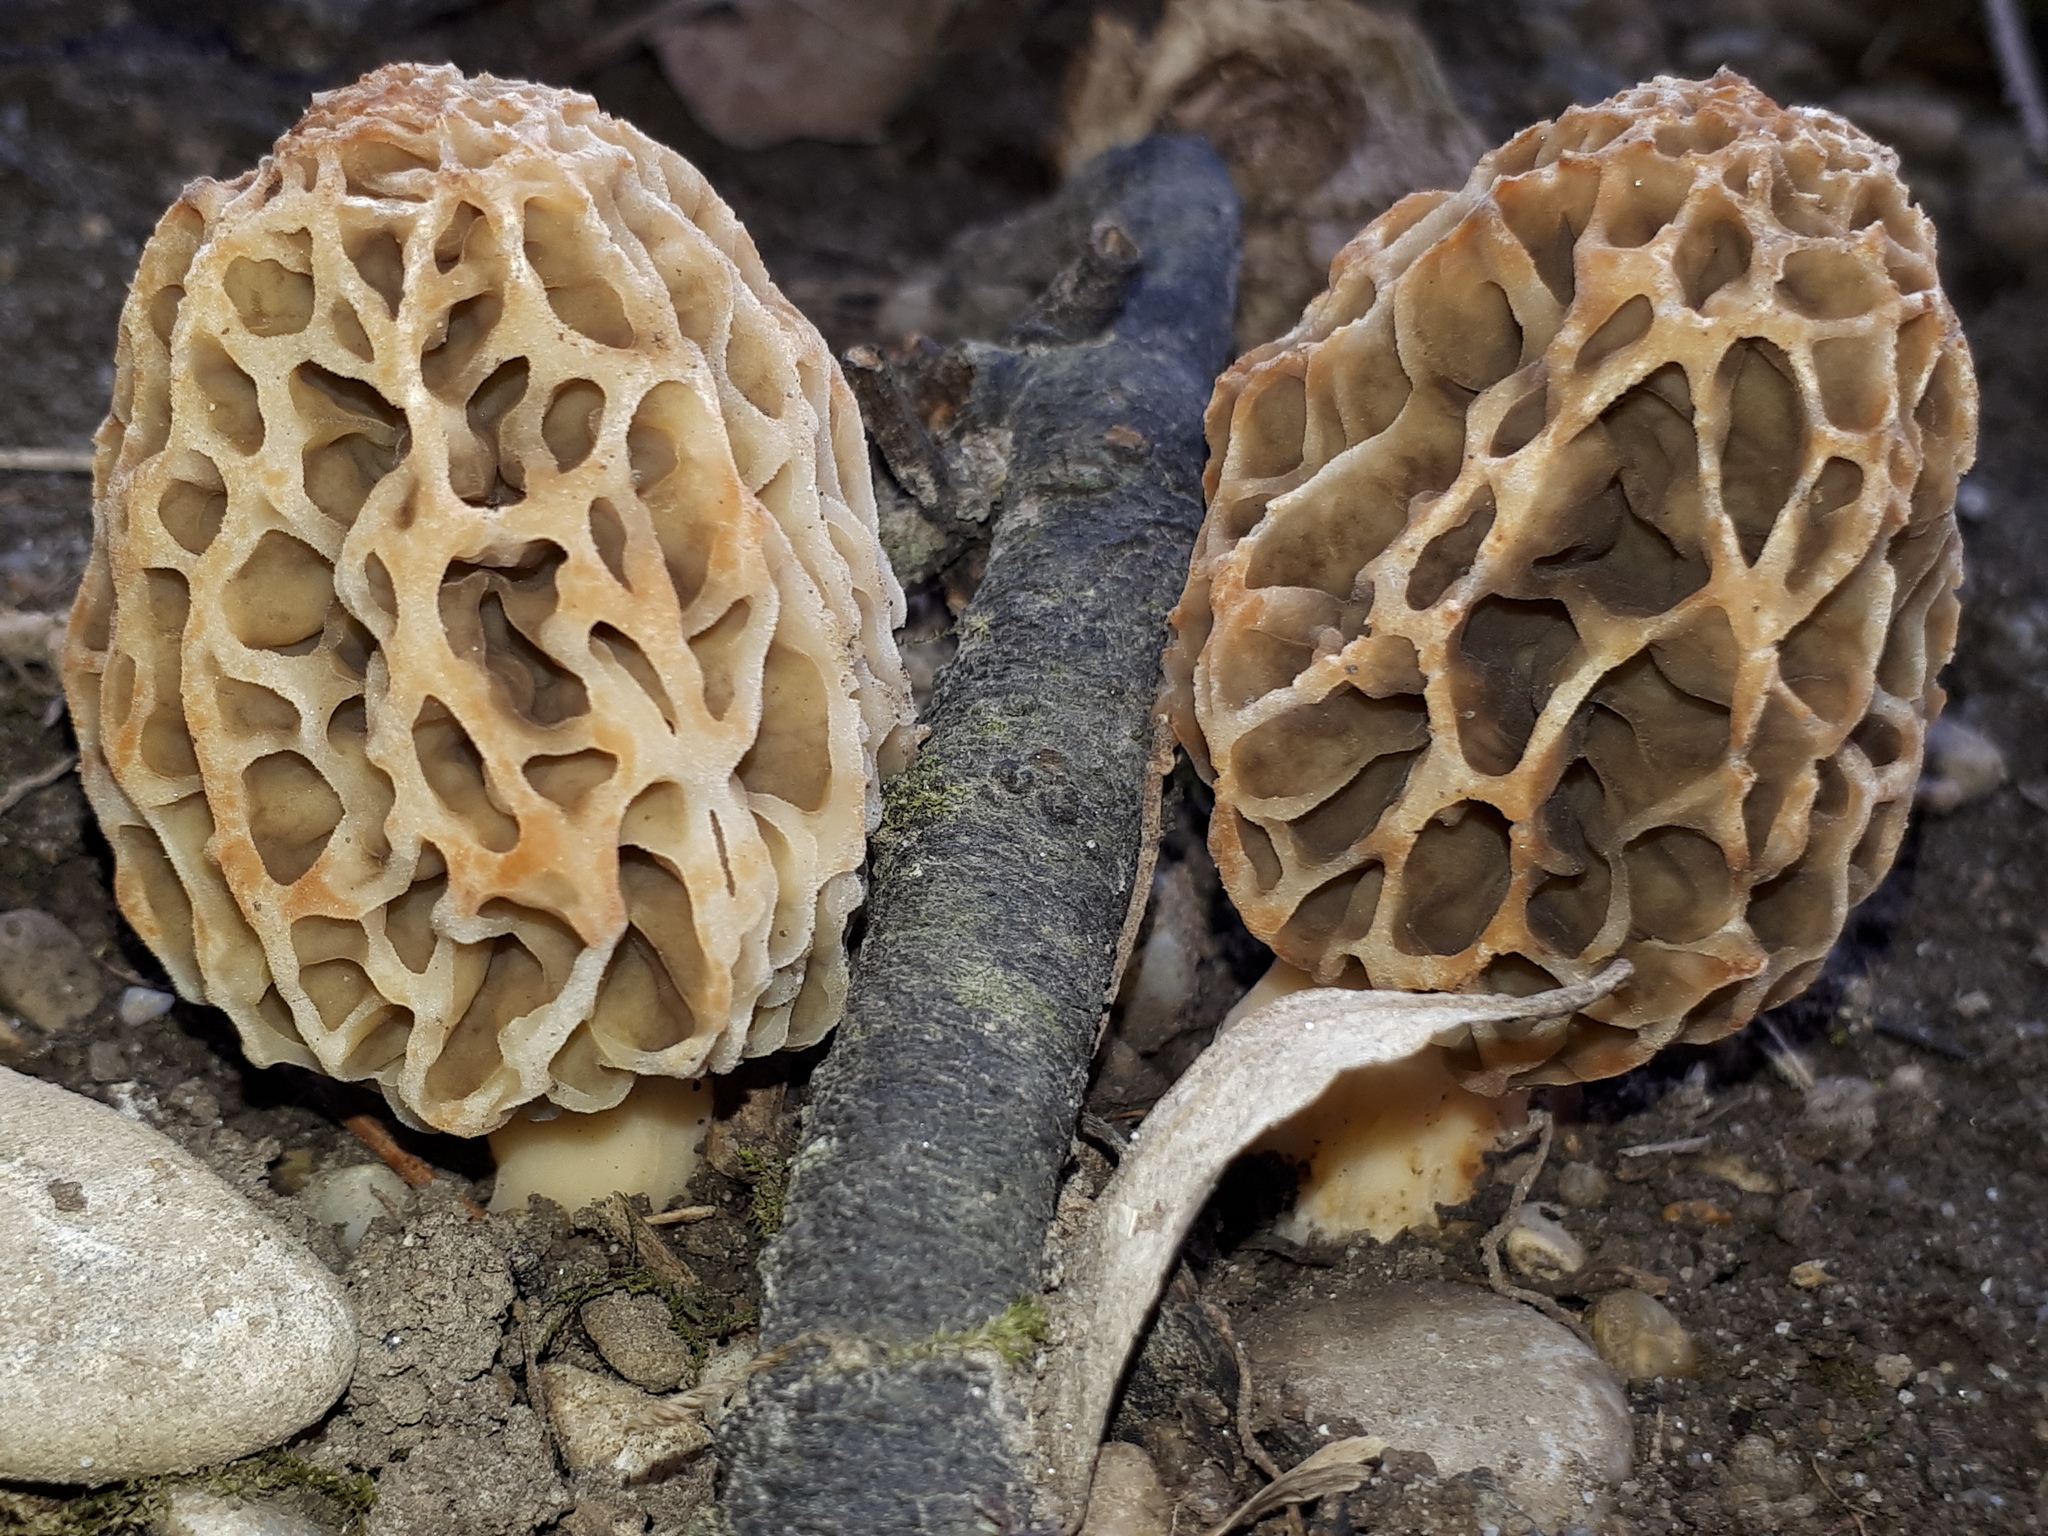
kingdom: Fungi
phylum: Ascomycota
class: Pezizomycetes
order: Pezizales
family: Morchellaceae
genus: Morchella
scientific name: Morchella esculenta
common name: Morel
